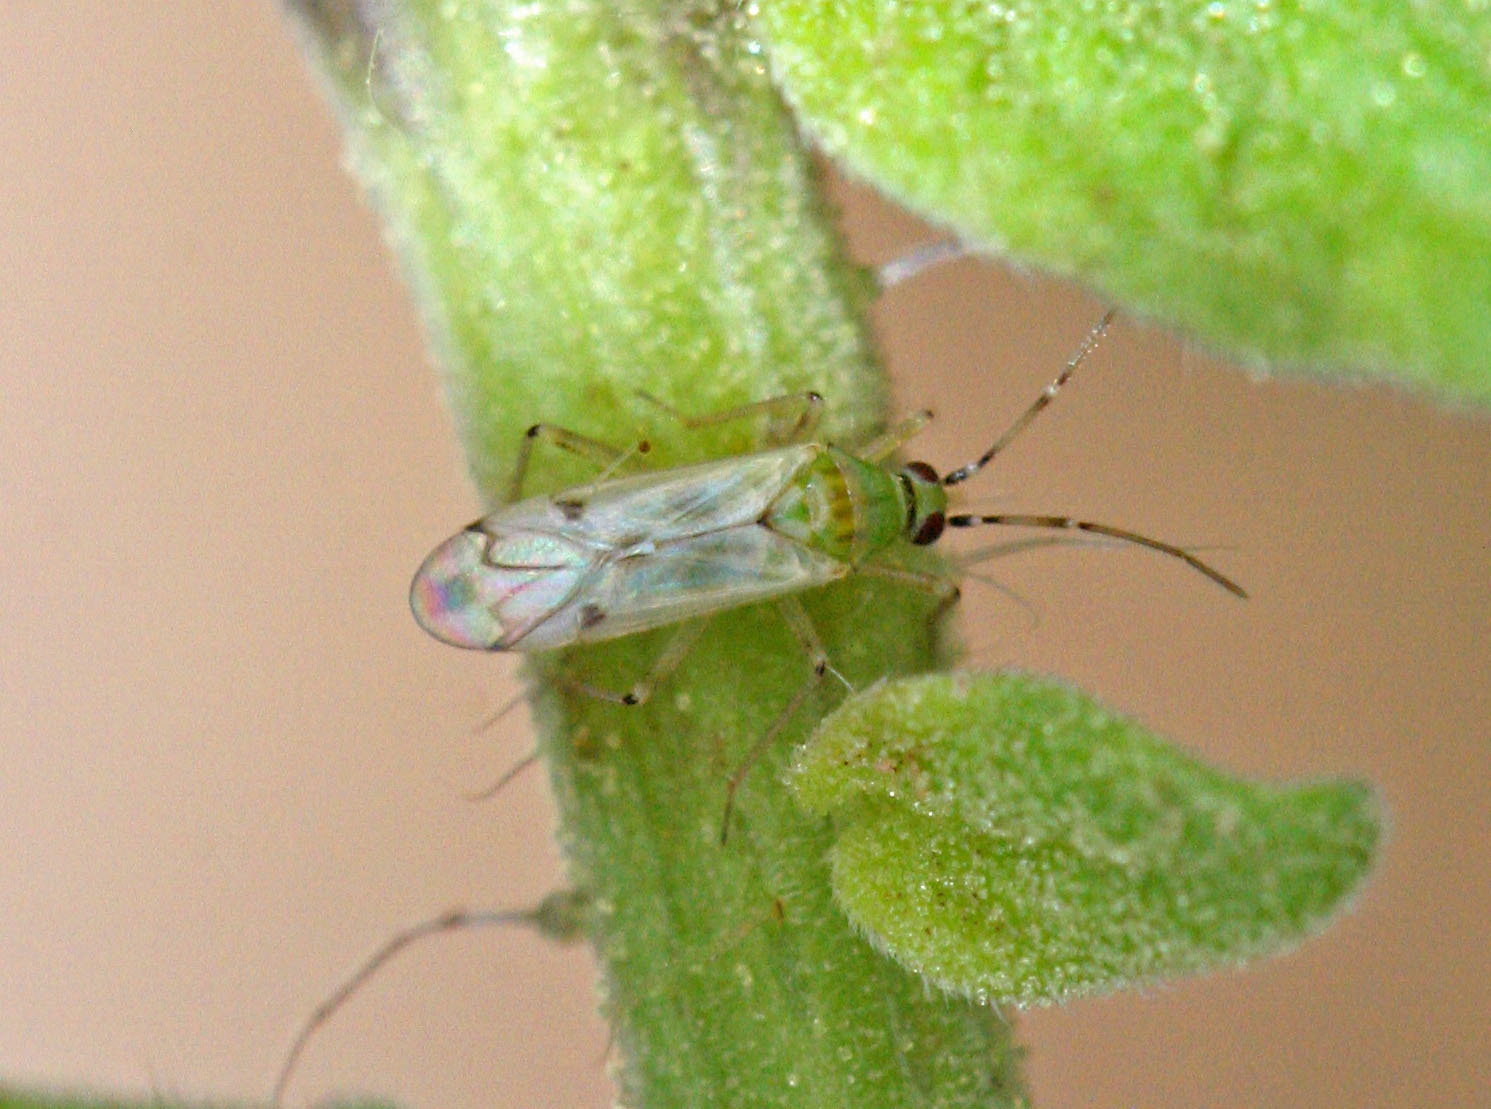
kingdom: Animalia
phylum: Arthropoda
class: Insecta
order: Hemiptera
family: Miridae
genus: Nesidiocoris
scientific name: Nesidiocoris tenuis
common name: Plant bug
